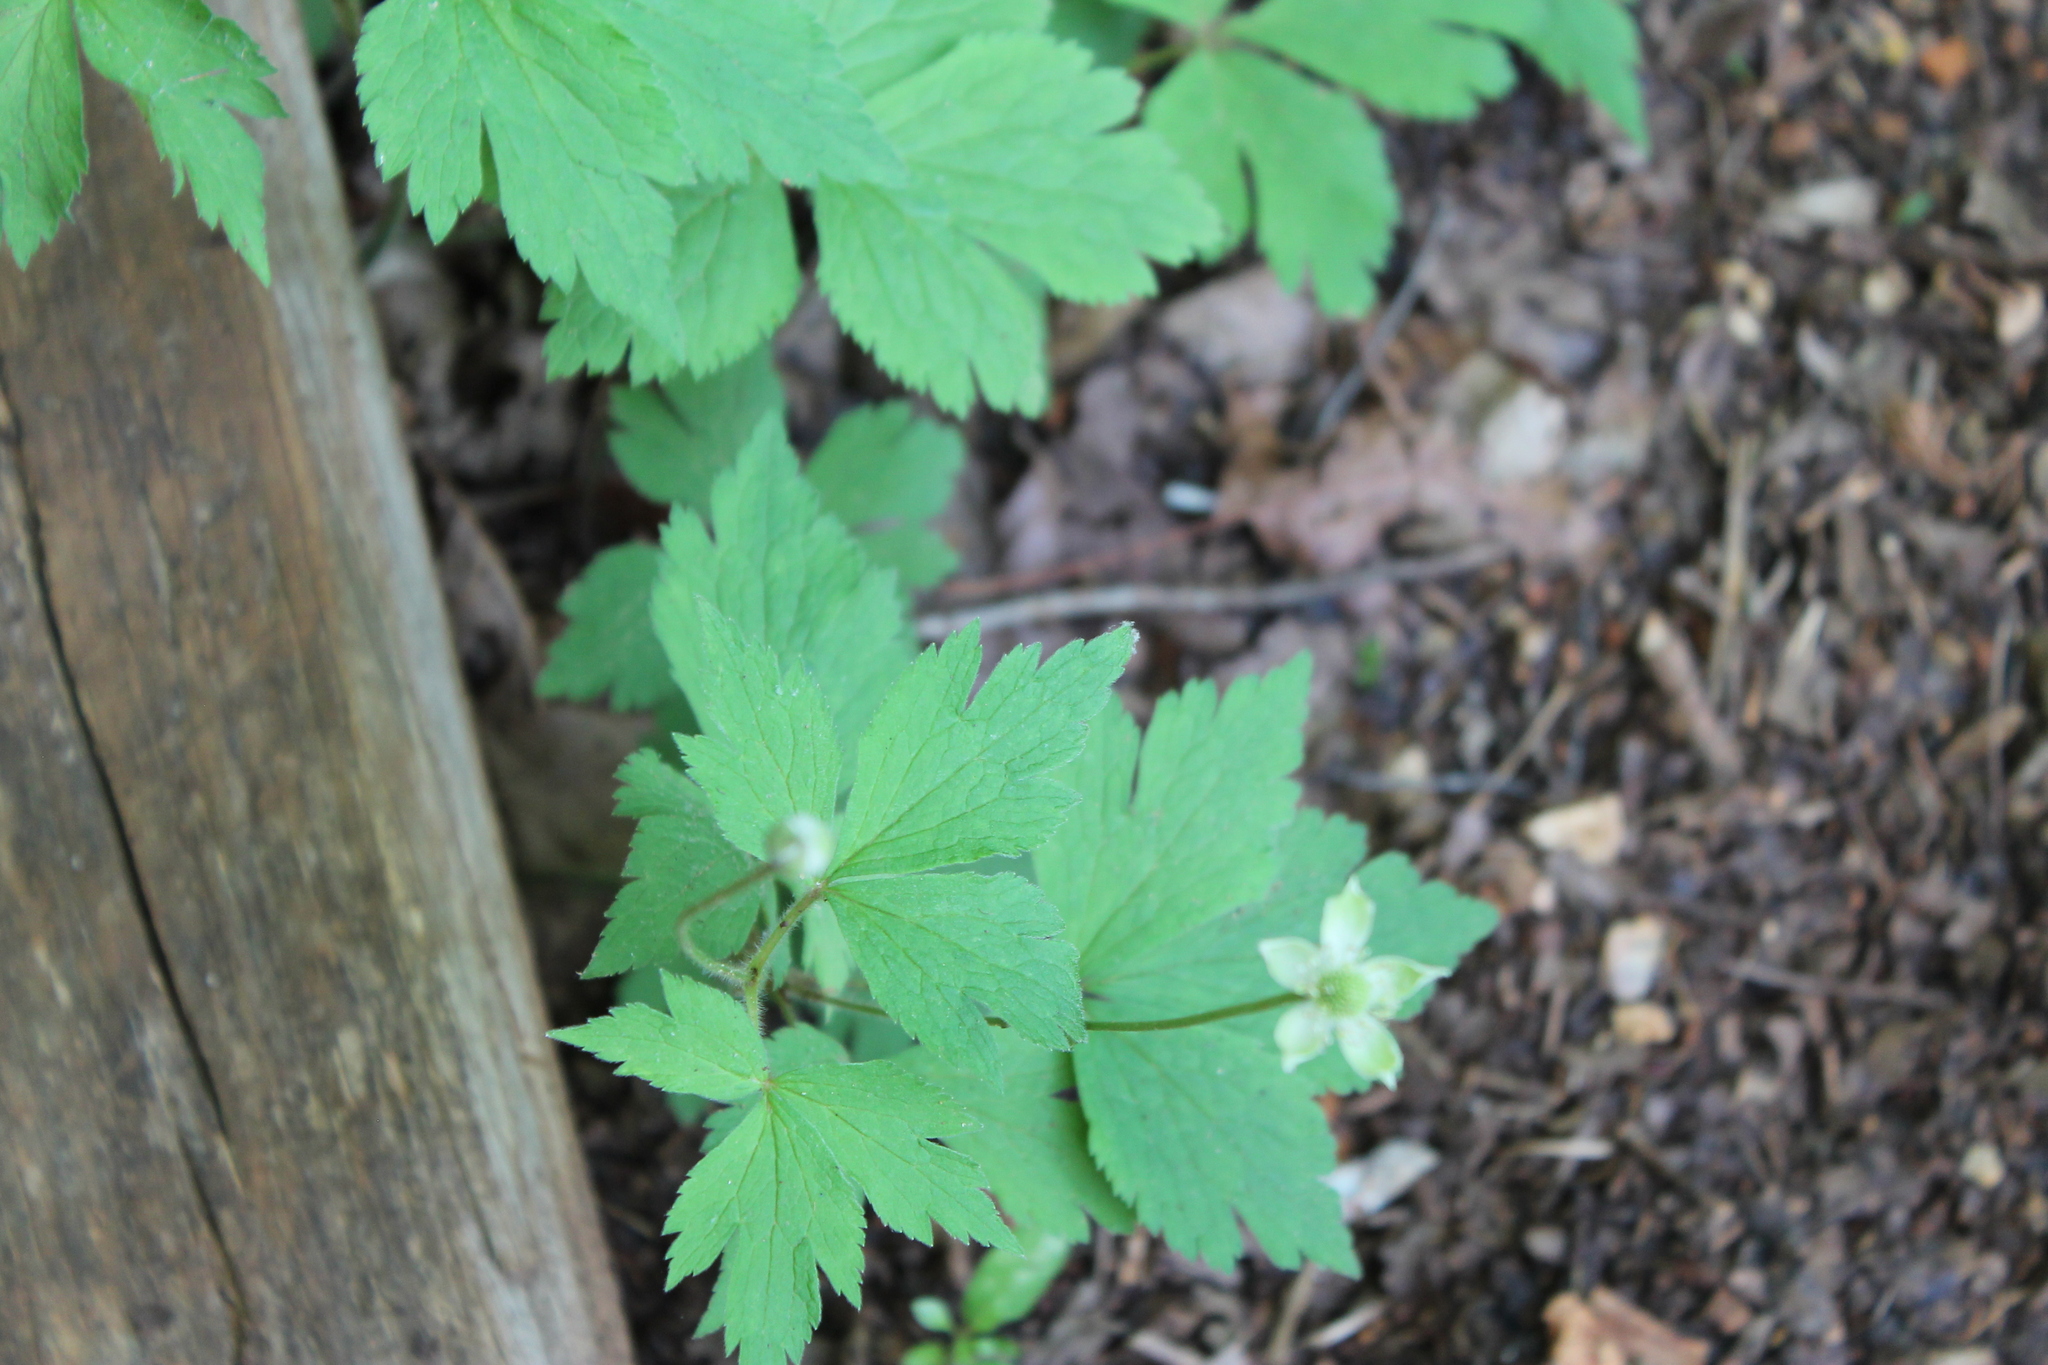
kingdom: Plantae
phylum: Tracheophyta
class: Magnoliopsida
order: Ranunculales
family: Ranunculaceae
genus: Anemone
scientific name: Anemone virginiana
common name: Tall anemone
